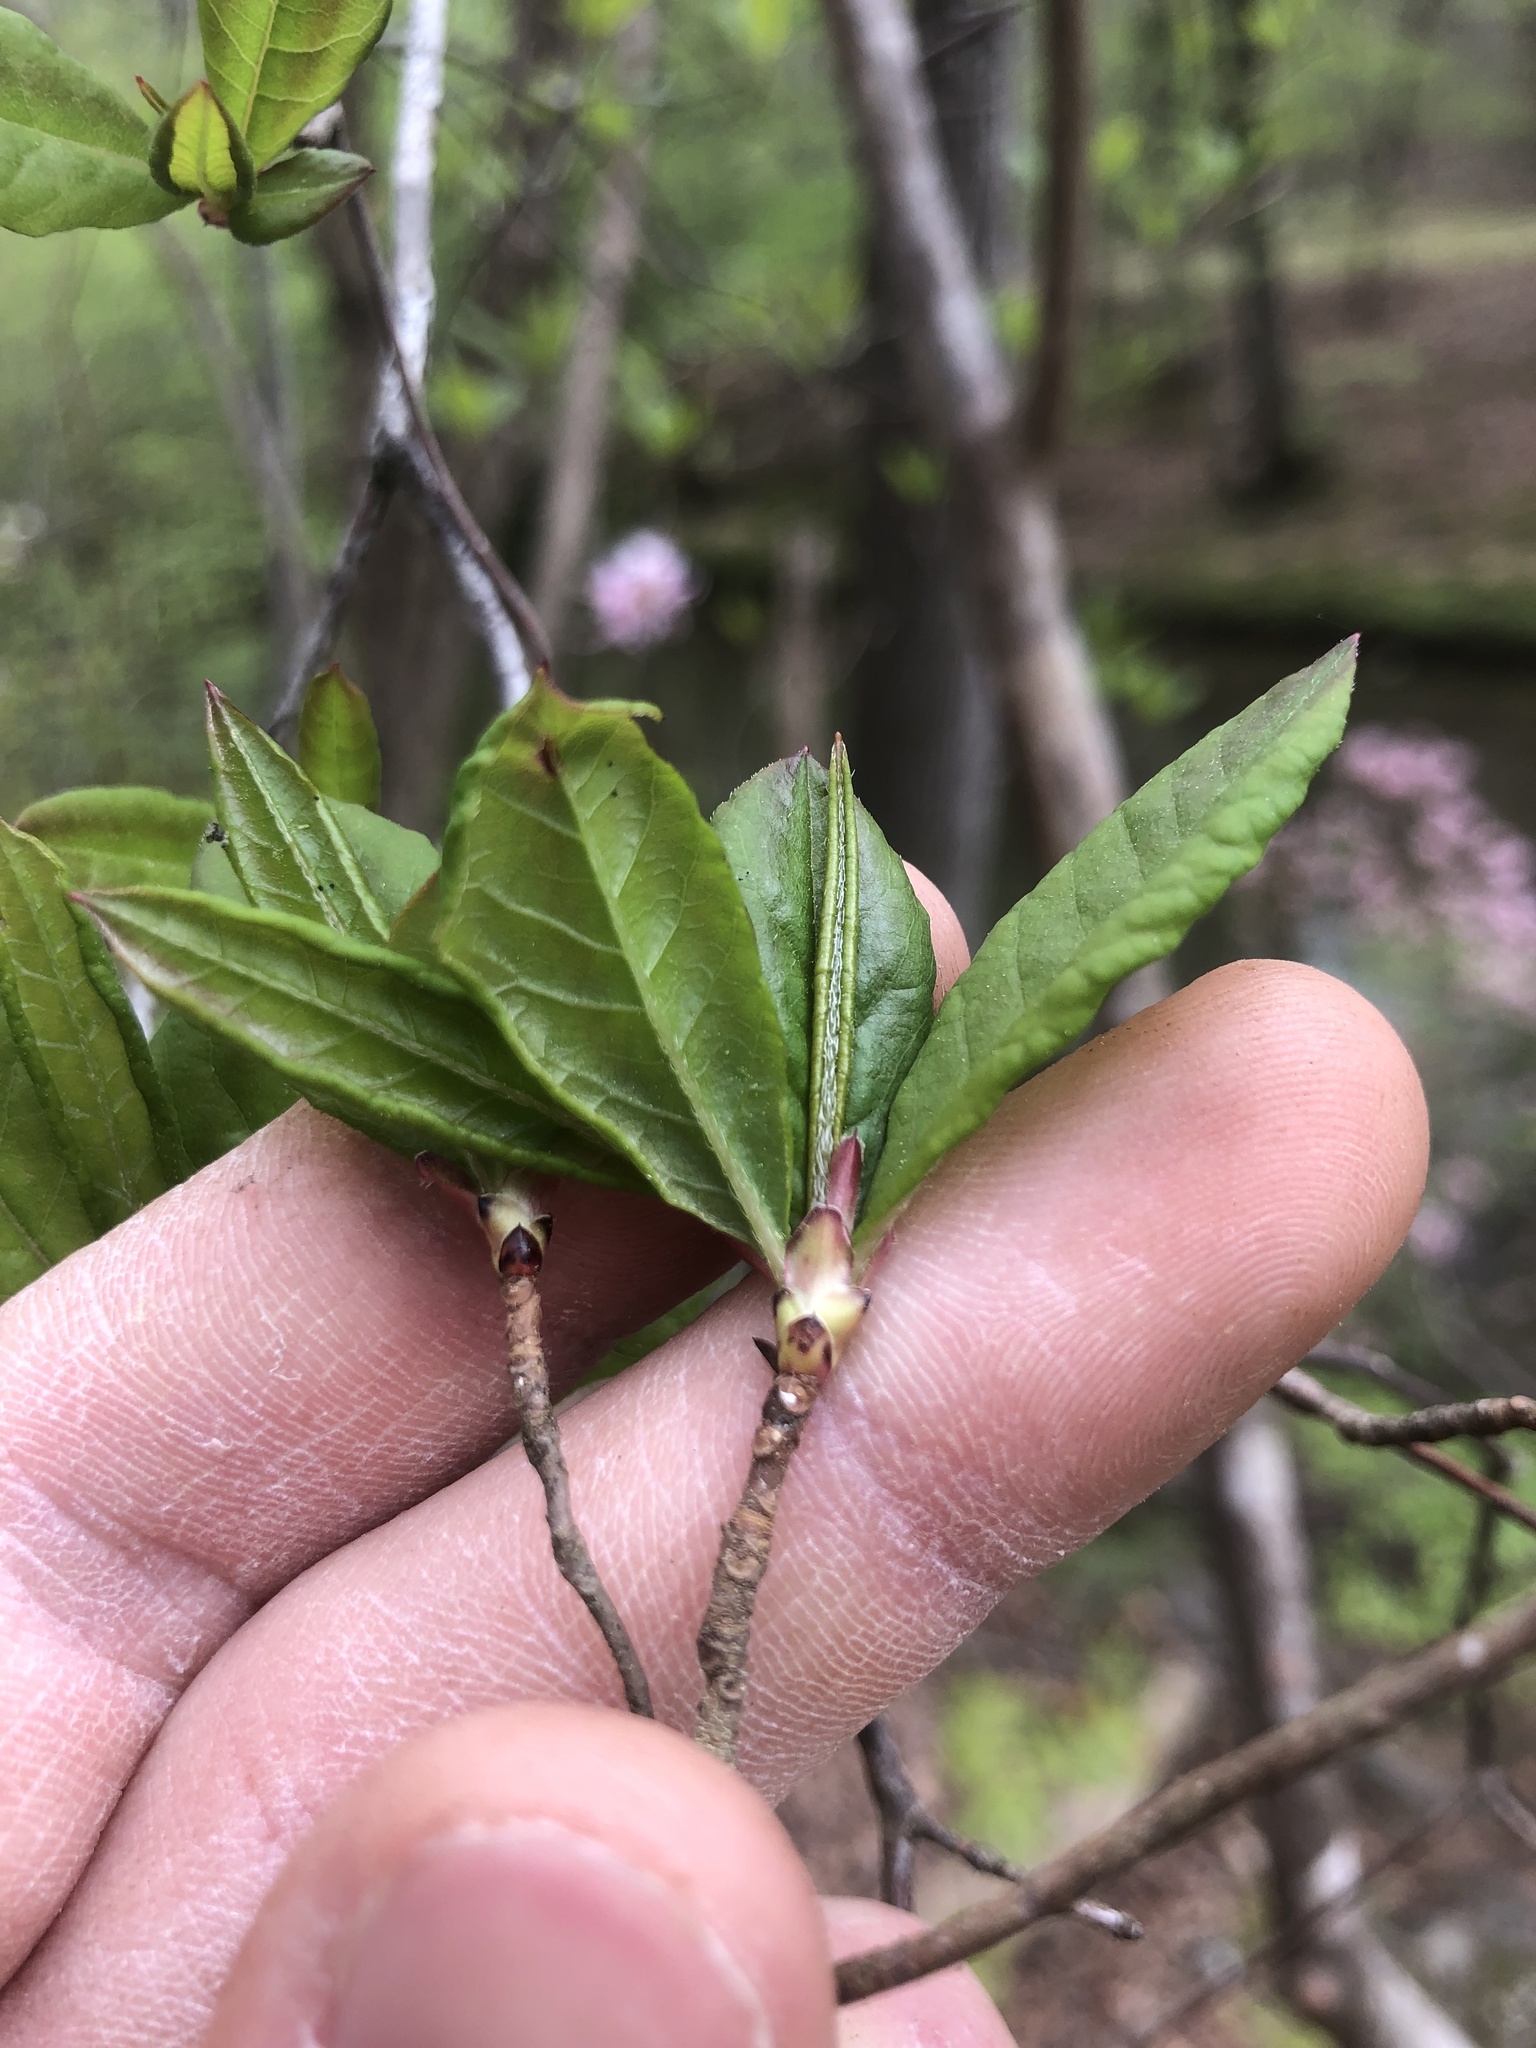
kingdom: Plantae
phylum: Tracheophyta
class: Magnoliopsida
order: Ericales
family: Ericaceae
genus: Rhododendron
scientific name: Rhododendron periclymenoides
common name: Election-pink
